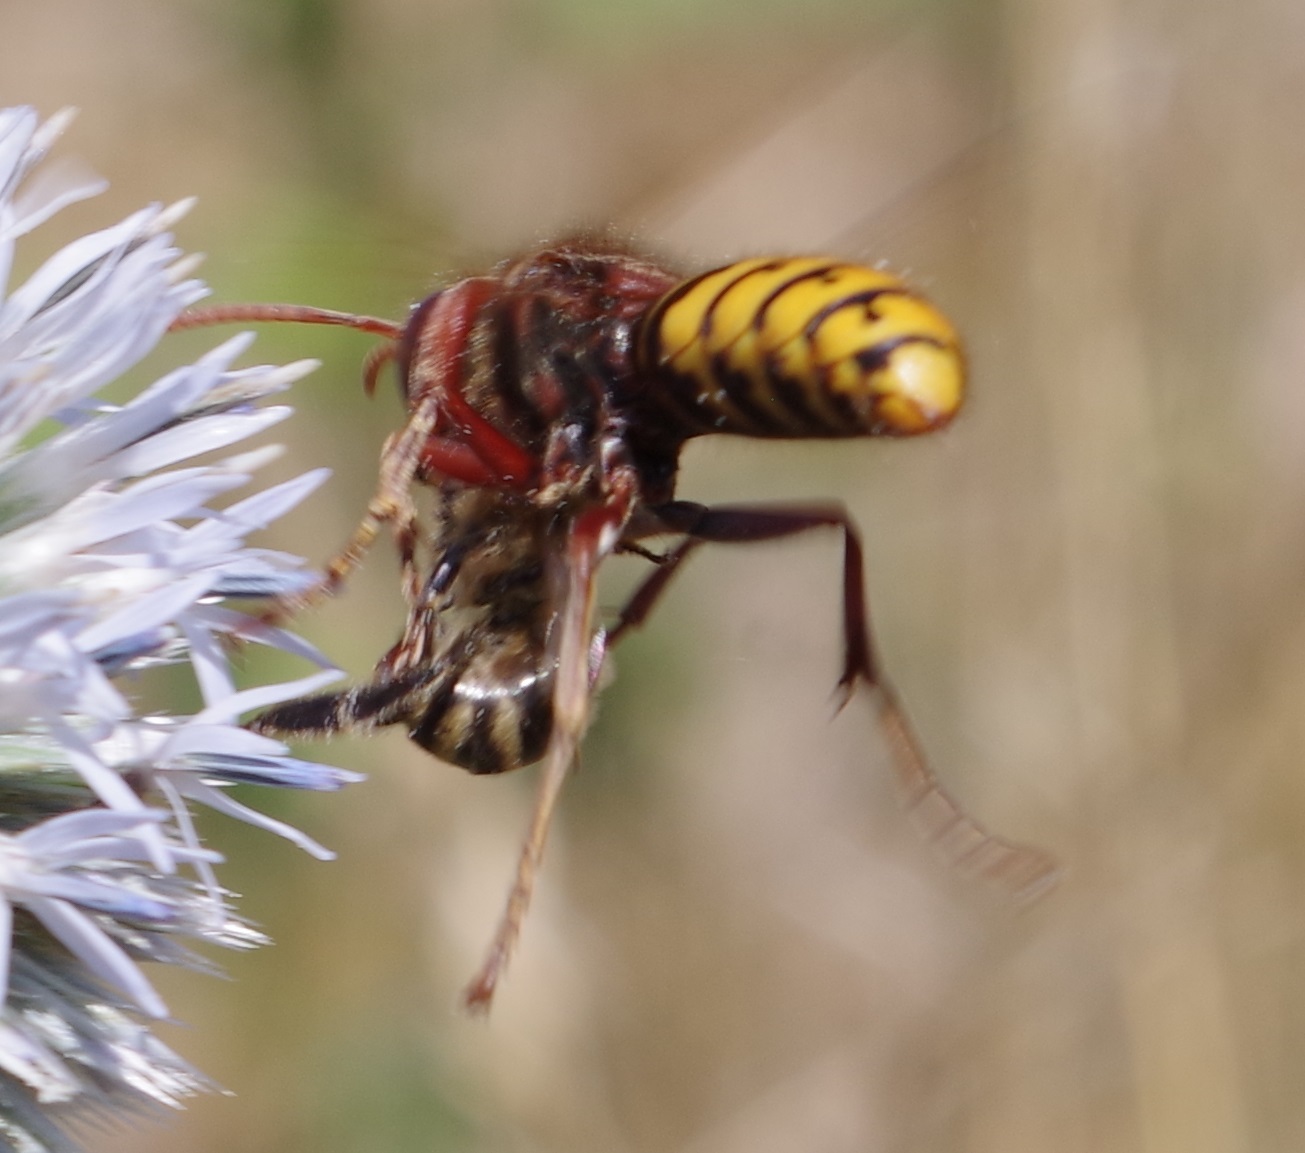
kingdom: Animalia
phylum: Arthropoda
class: Insecta
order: Hymenoptera
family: Apidae
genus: Apis
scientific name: Apis mellifera
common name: Honey bee
